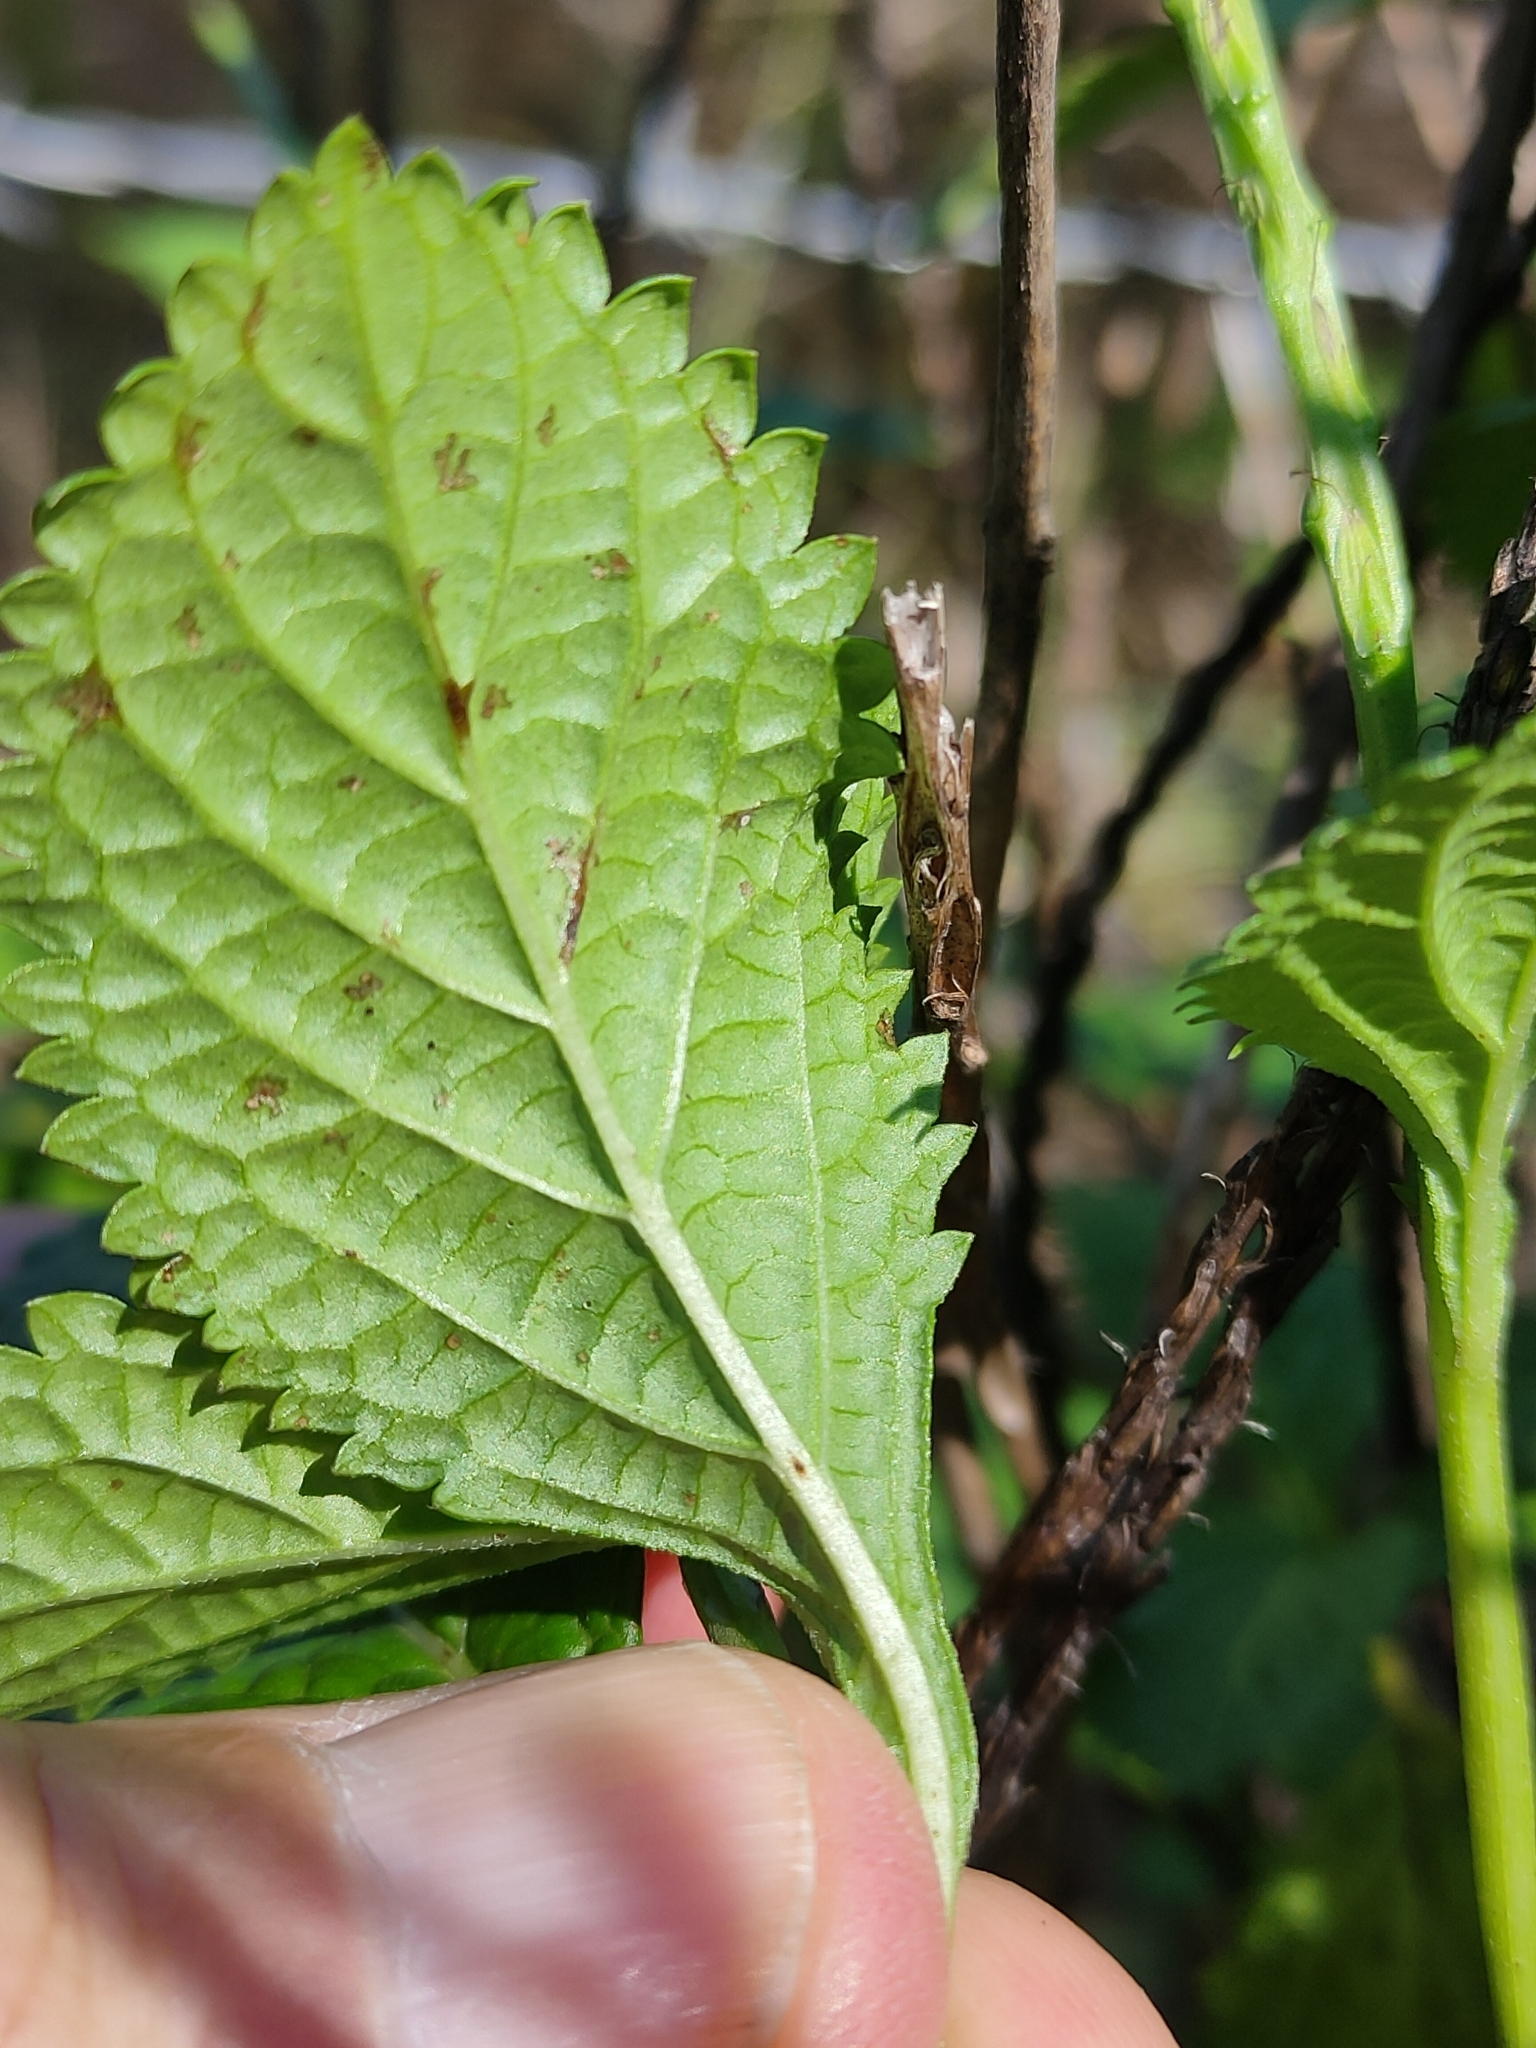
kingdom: Plantae
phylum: Tracheophyta
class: Magnoliopsida
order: Lamiales
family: Verbenaceae
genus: Stachytarpheta
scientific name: Stachytarpheta cayennensis
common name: Cayenne porterweed
